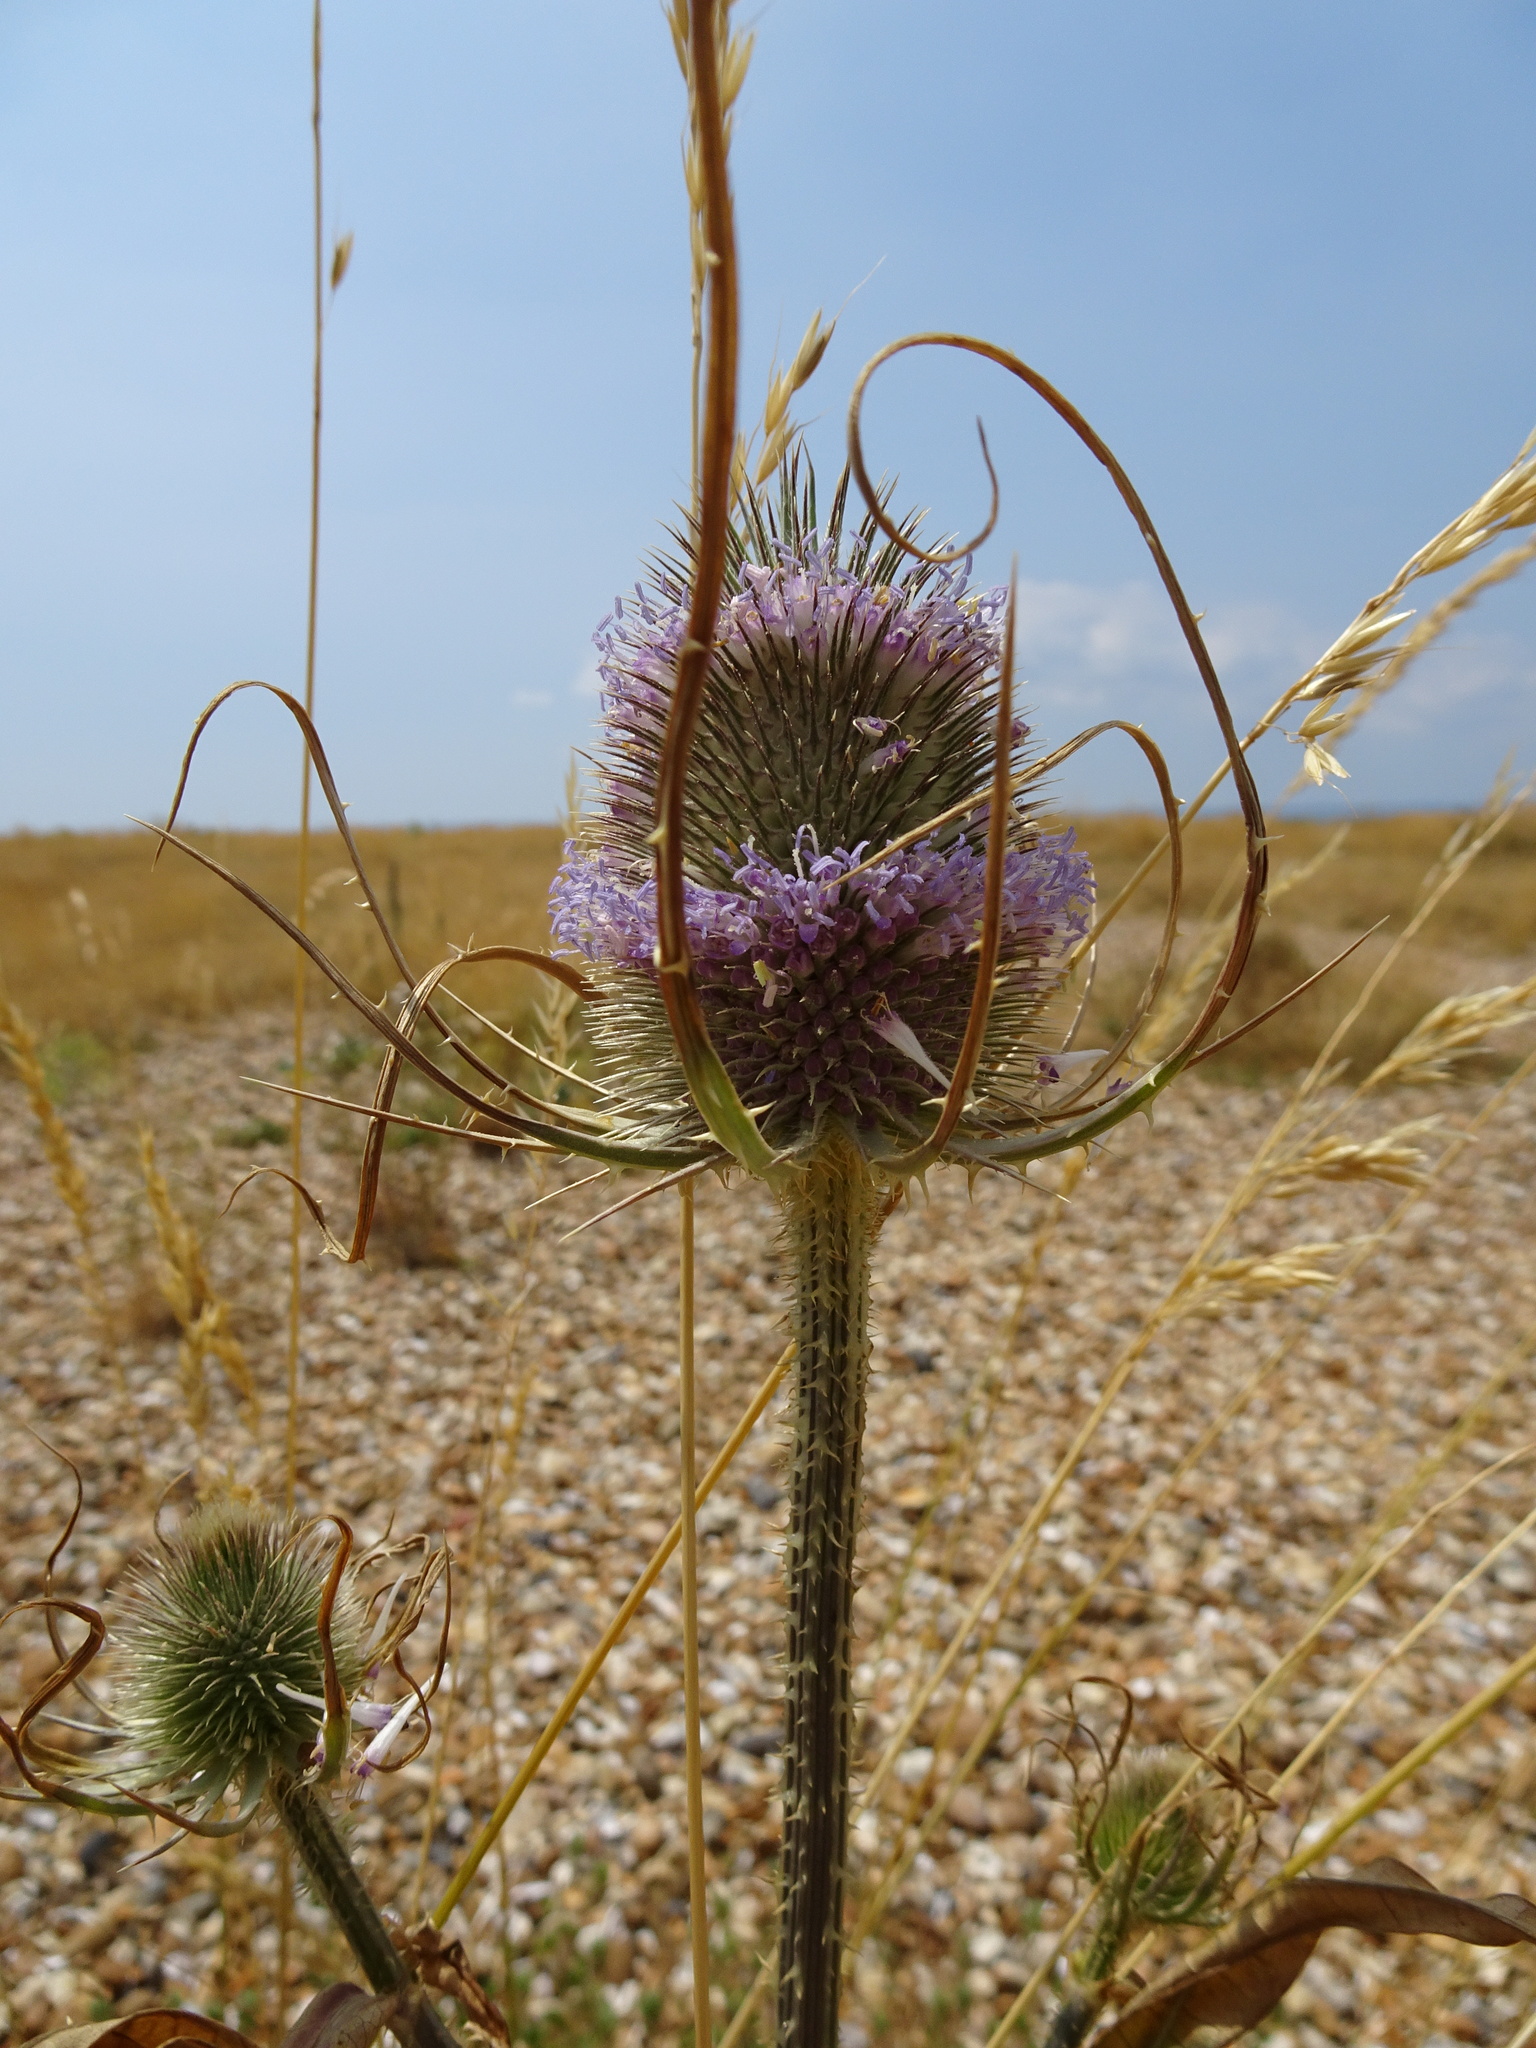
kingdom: Plantae
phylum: Tracheophyta
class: Magnoliopsida
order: Dipsacales
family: Caprifoliaceae
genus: Dipsacus
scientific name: Dipsacus fullonum
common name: Teasel
